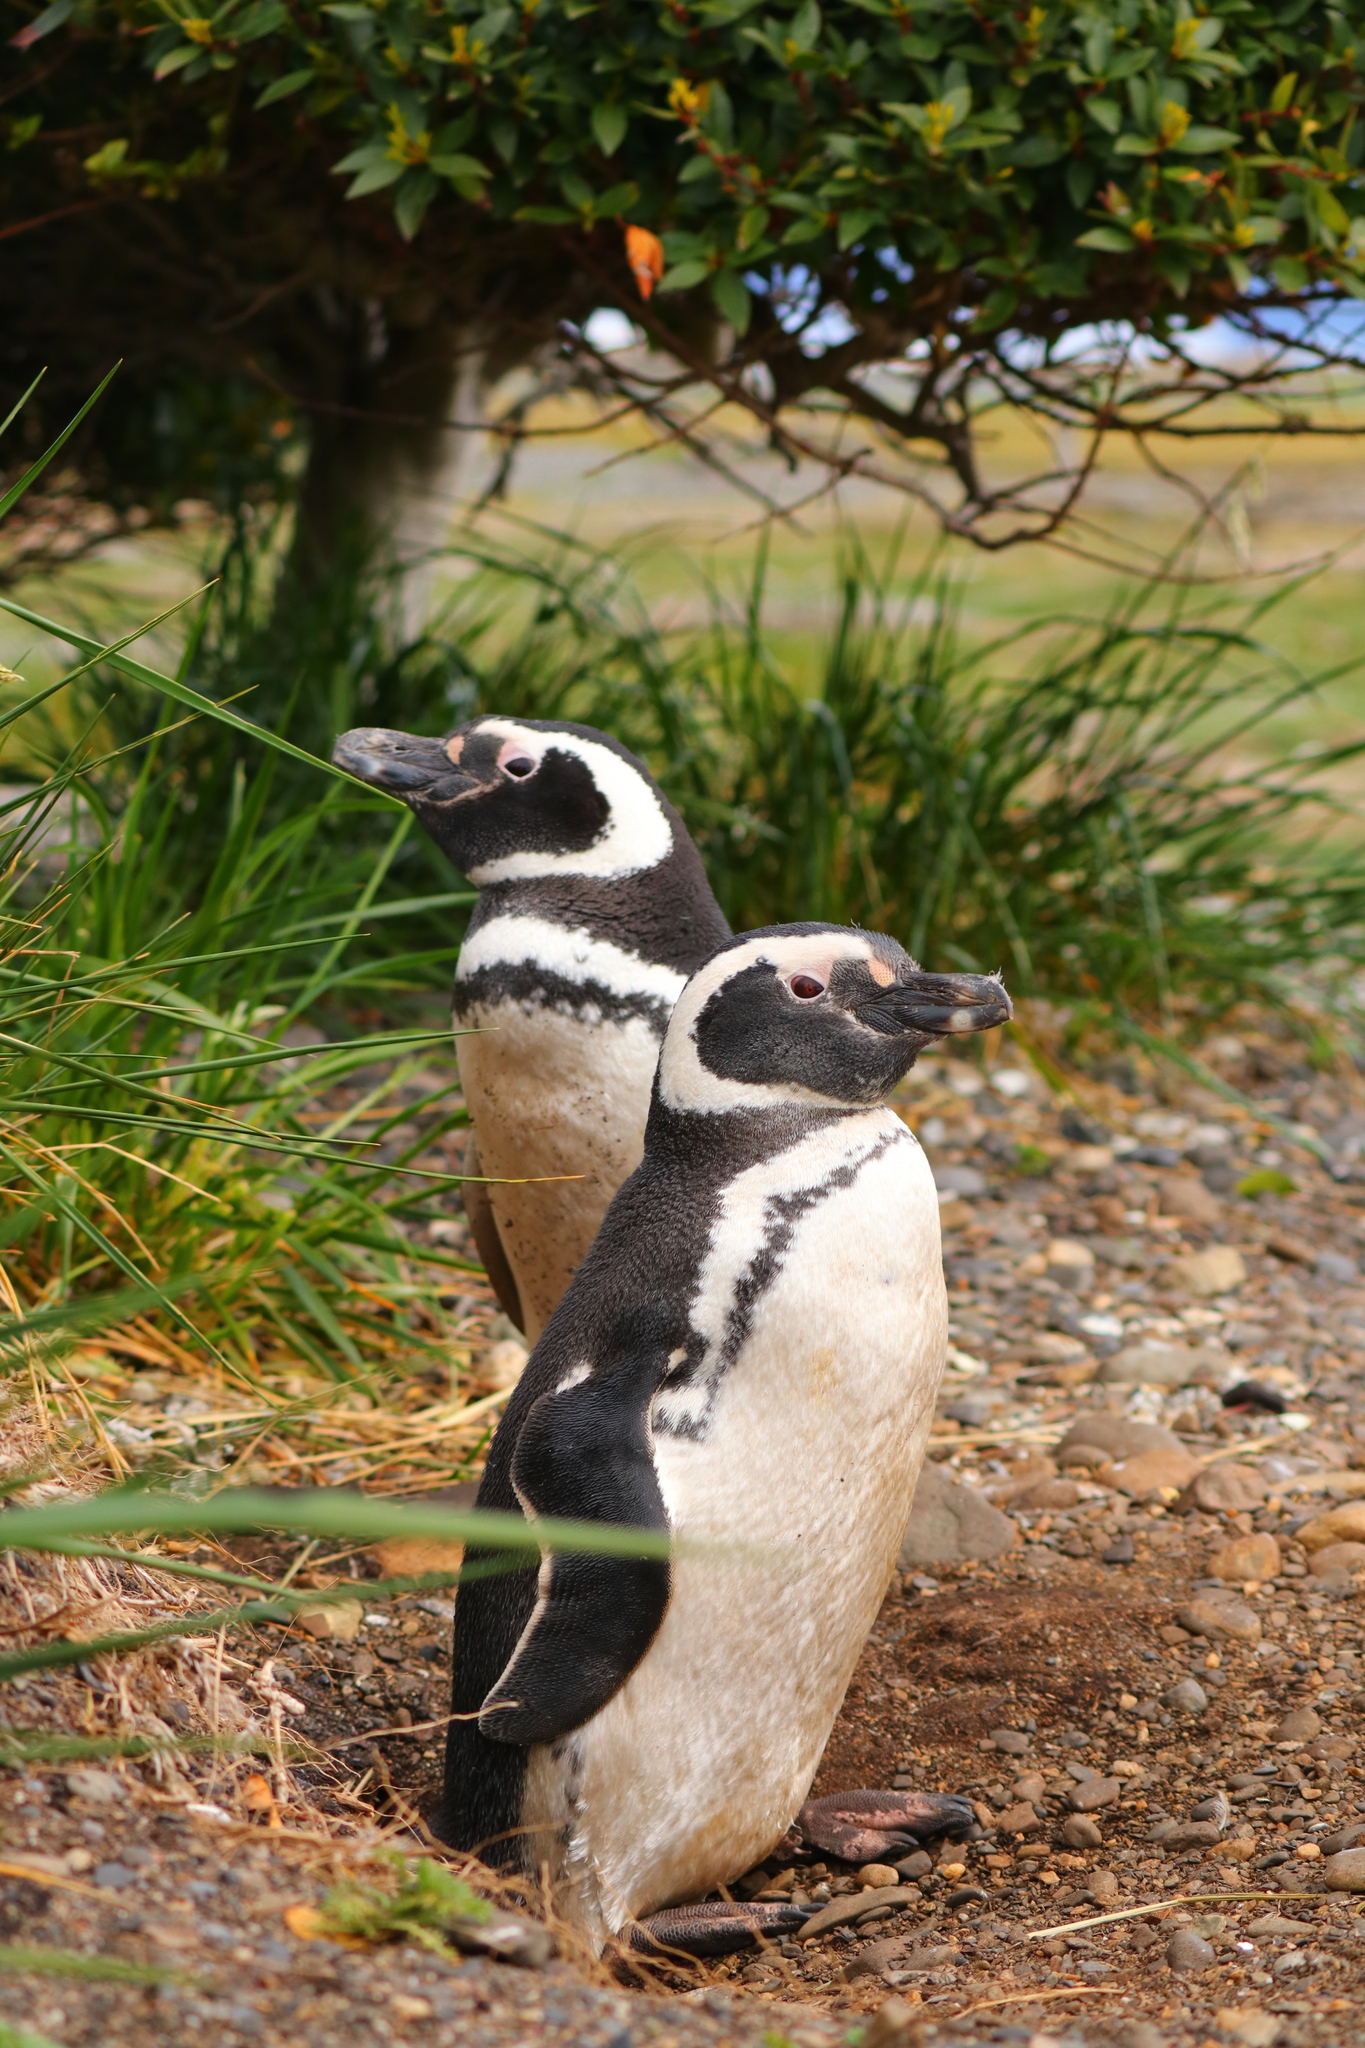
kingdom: Animalia
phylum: Chordata
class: Aves
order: Sphenisciformes
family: Spheniscidae
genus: Spheniscus
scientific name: Spheniscus magellanicus
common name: Magellanic penguin
